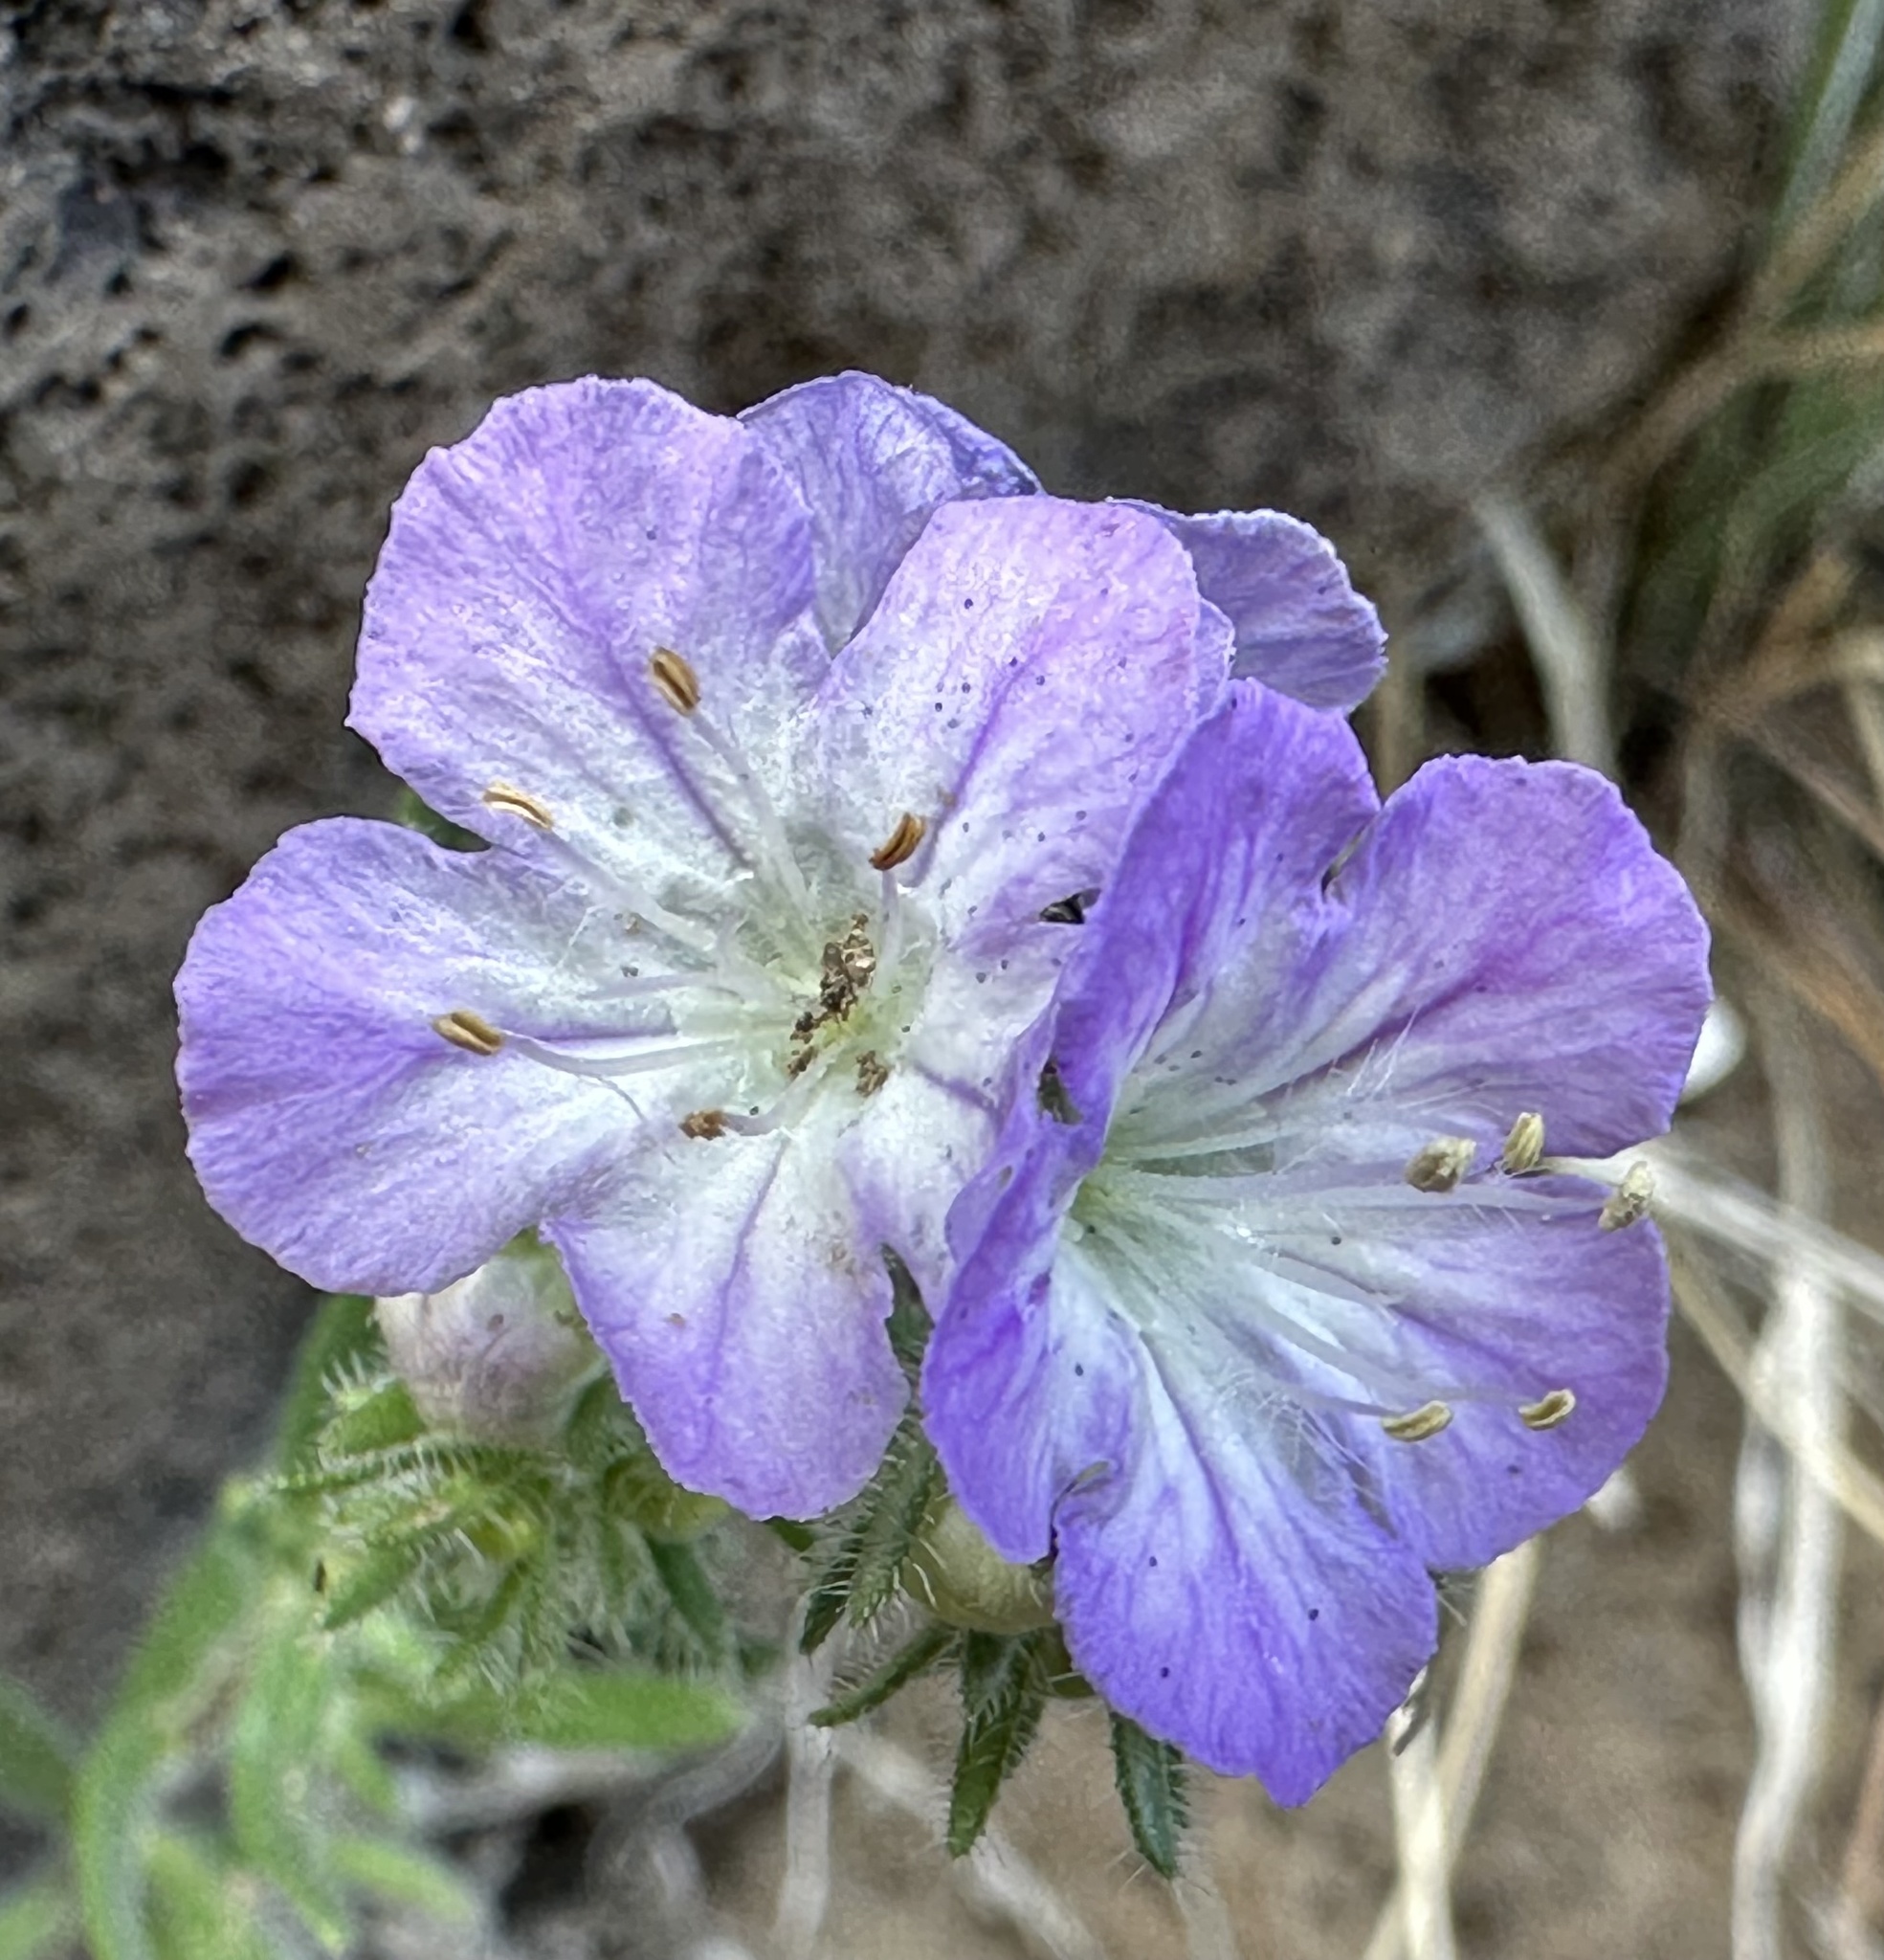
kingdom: Plantae
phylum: Tracheophyta
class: Magnoliopsida
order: Boraginales
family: Hydrophyllaceae
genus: Phacelia
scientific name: Phacelia linearis
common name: Linear-leaved phacelia
